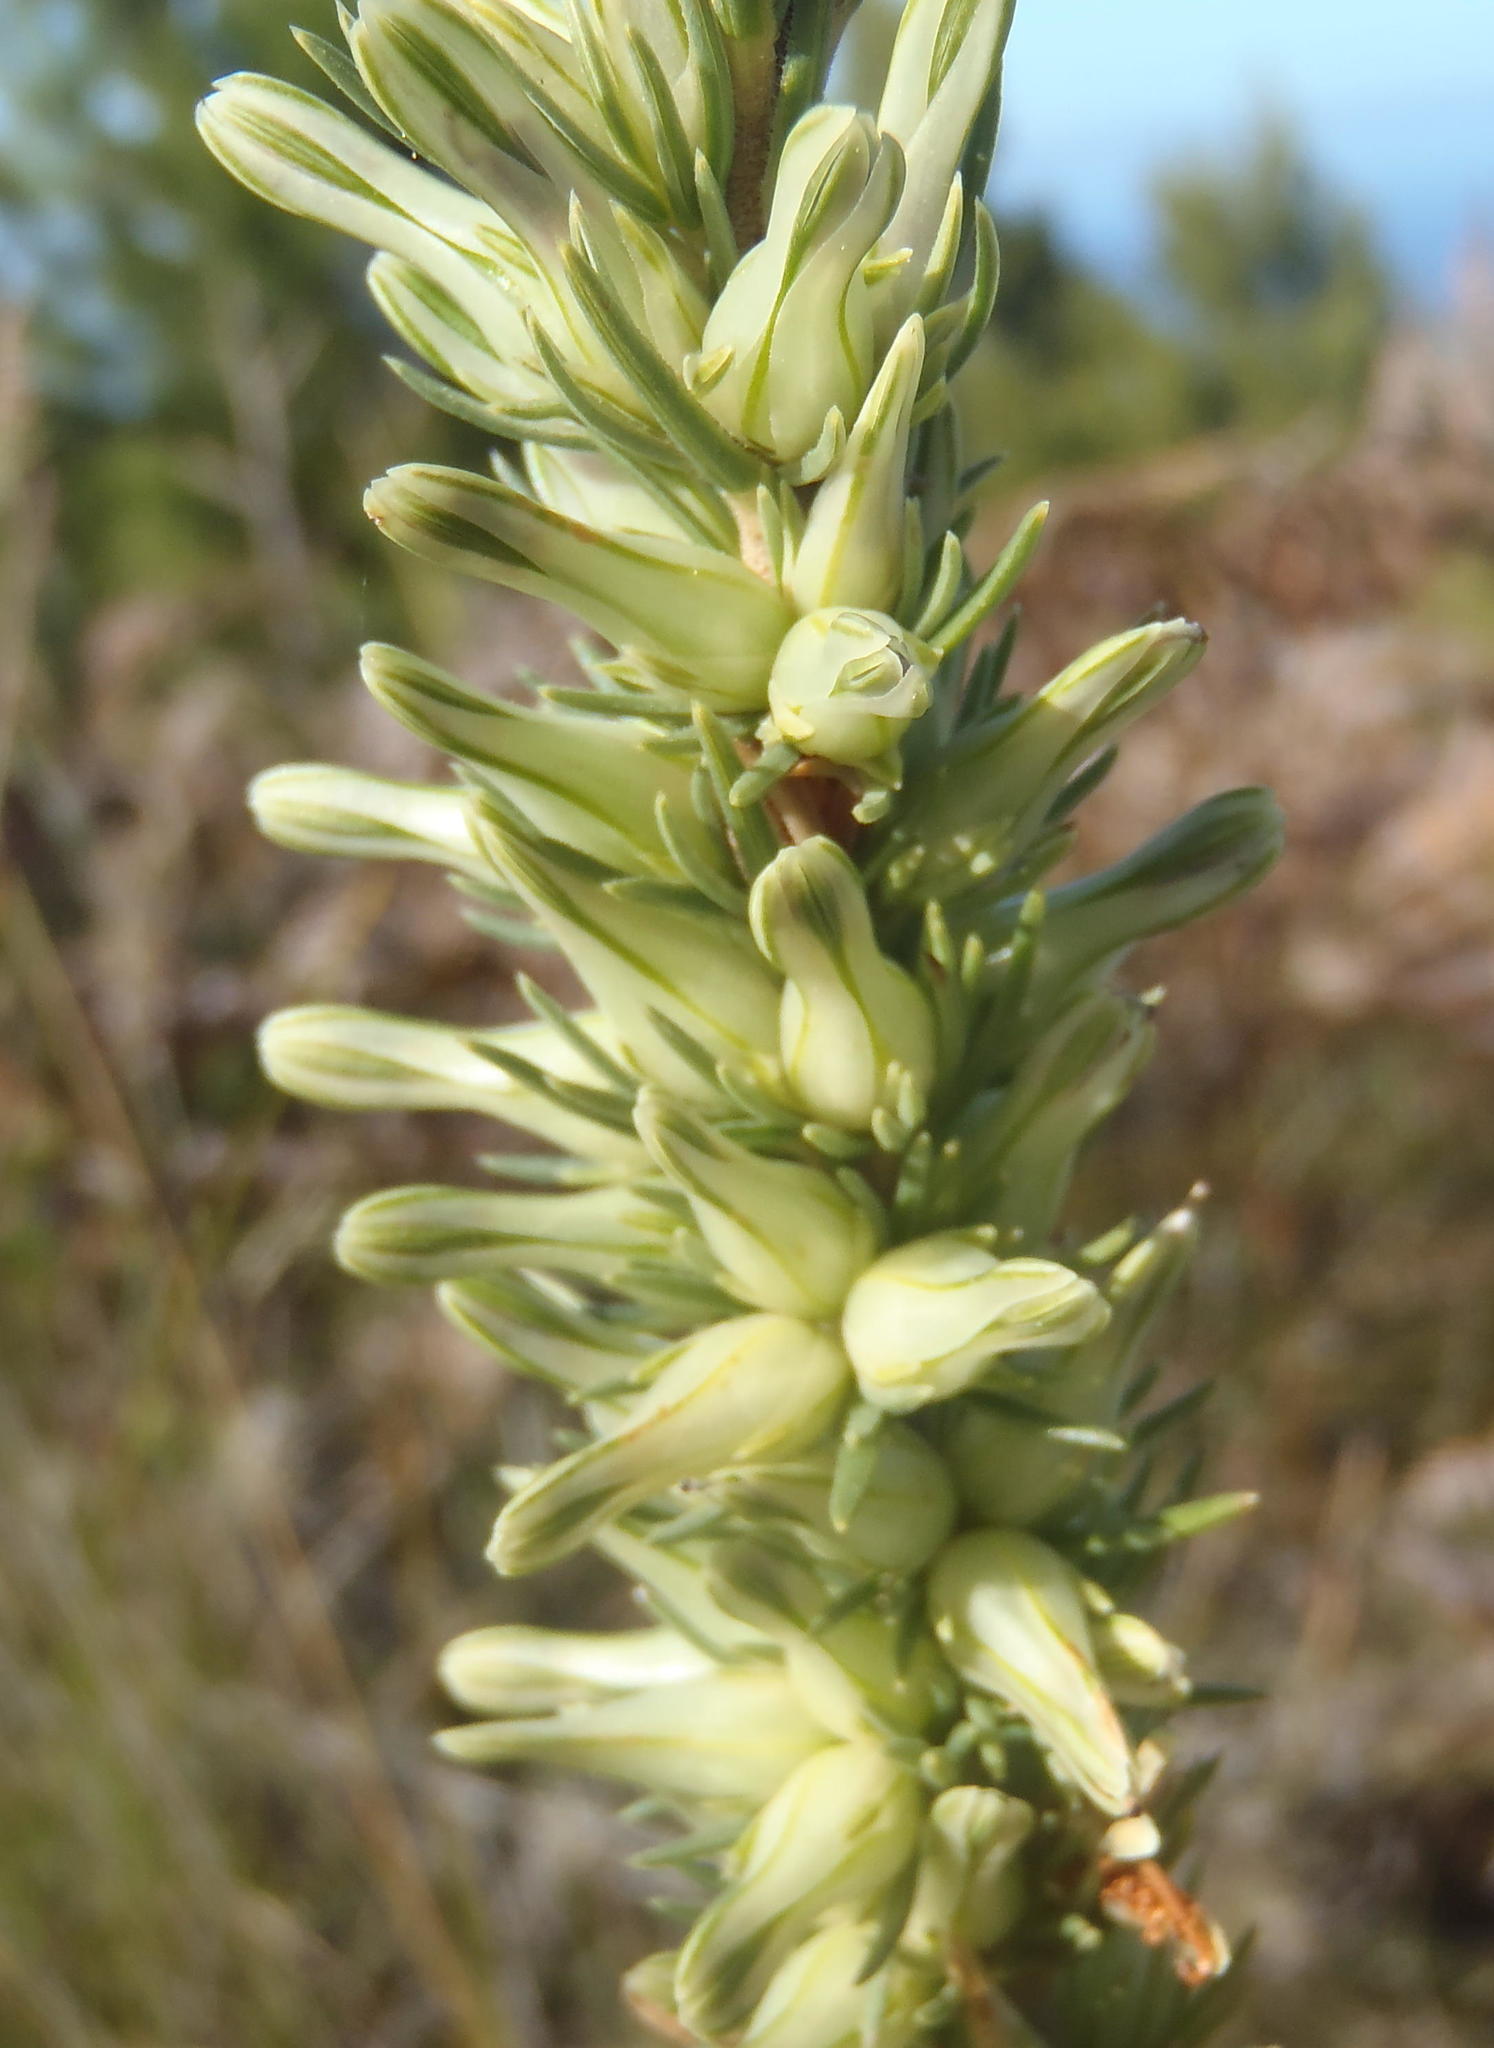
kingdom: Plantae
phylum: Tracheophyta
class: Magnoliopsida
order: Ericales
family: Ericaceae
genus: Erica
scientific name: Erica nabea
